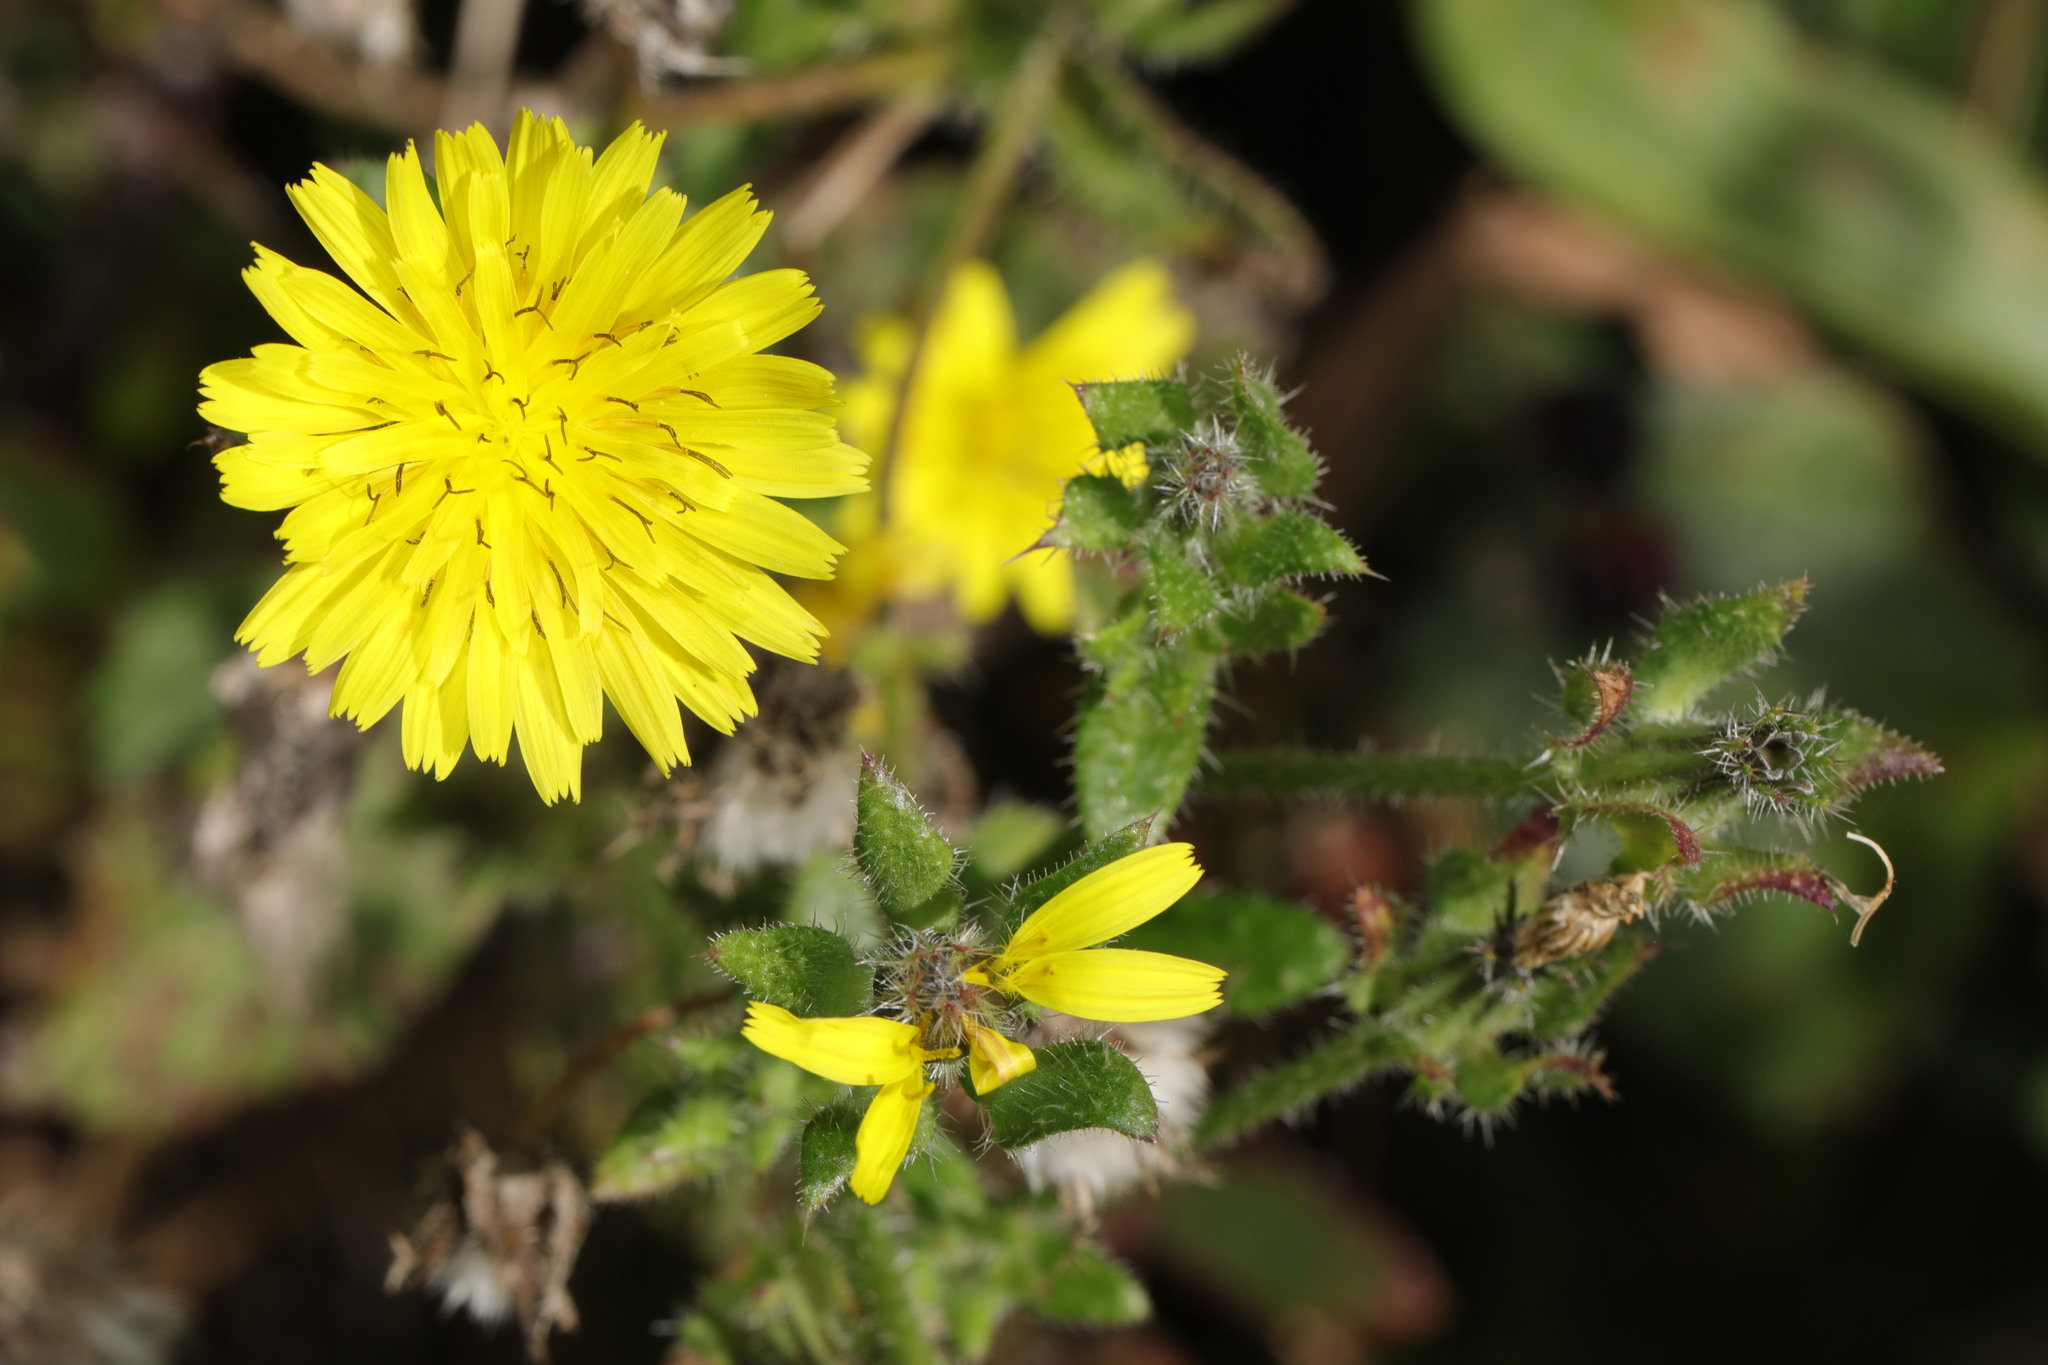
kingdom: Plantae
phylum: Tracheophyta
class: Magnoliopsida
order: Asterales
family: Asteraceae
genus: Helminthotheca
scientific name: Helminthotheca echioides
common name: Ox-tongue
